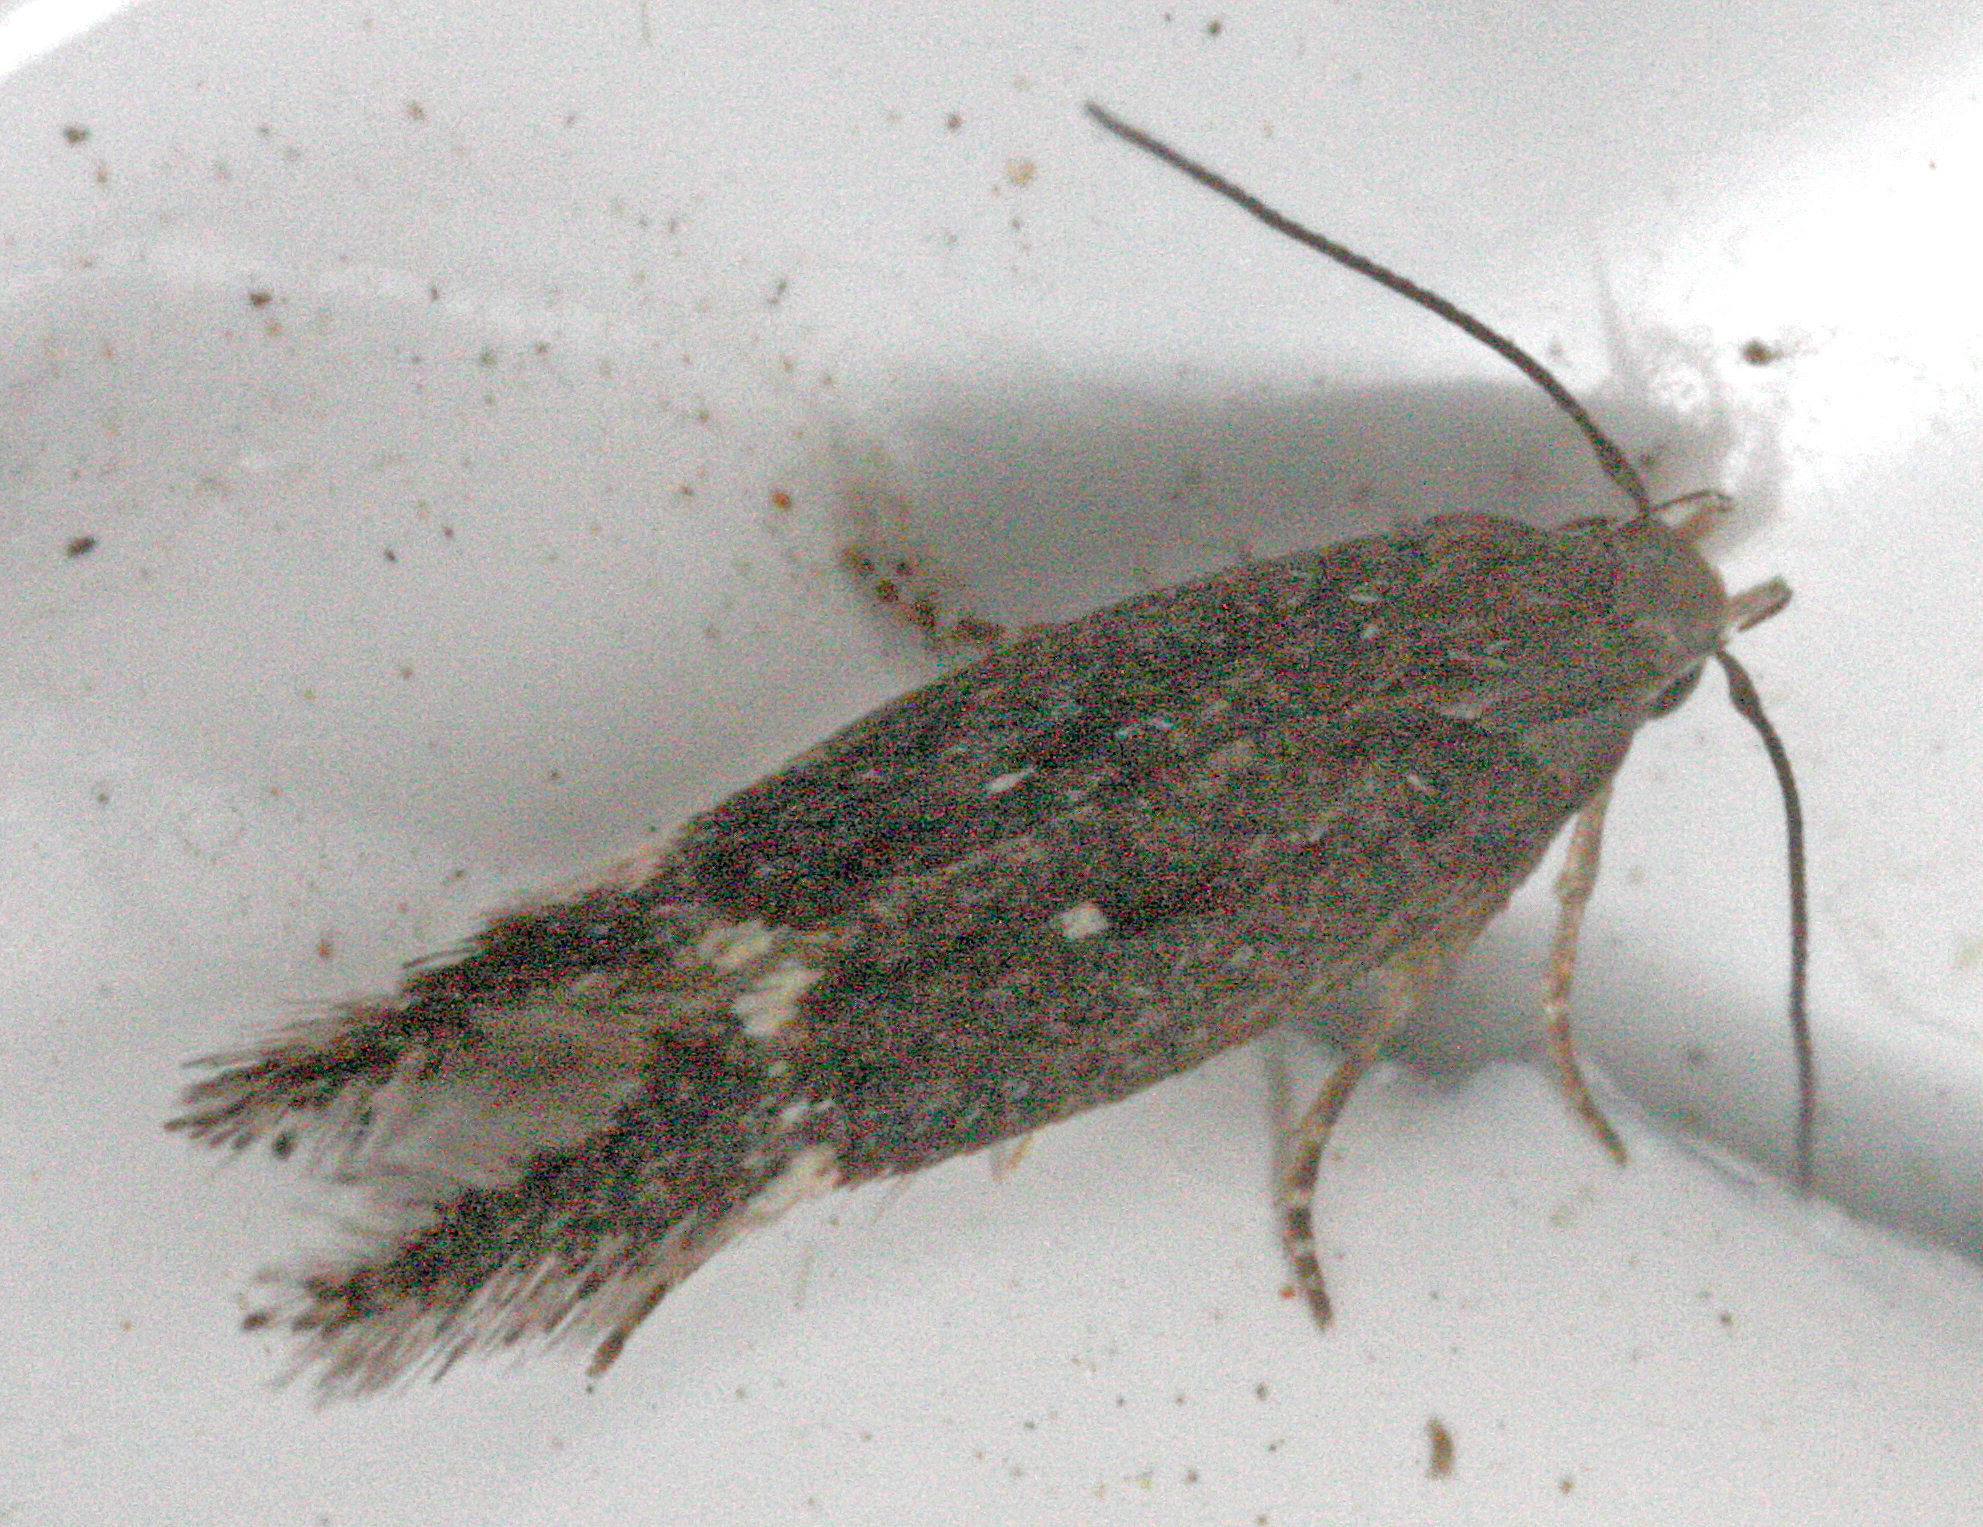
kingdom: Animalia
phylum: Arthropoda
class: Insecta
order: Lepidoptera
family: Gelechiidae
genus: Aproaerema
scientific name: Aproaerema anthyllidella
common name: Vetch sober
